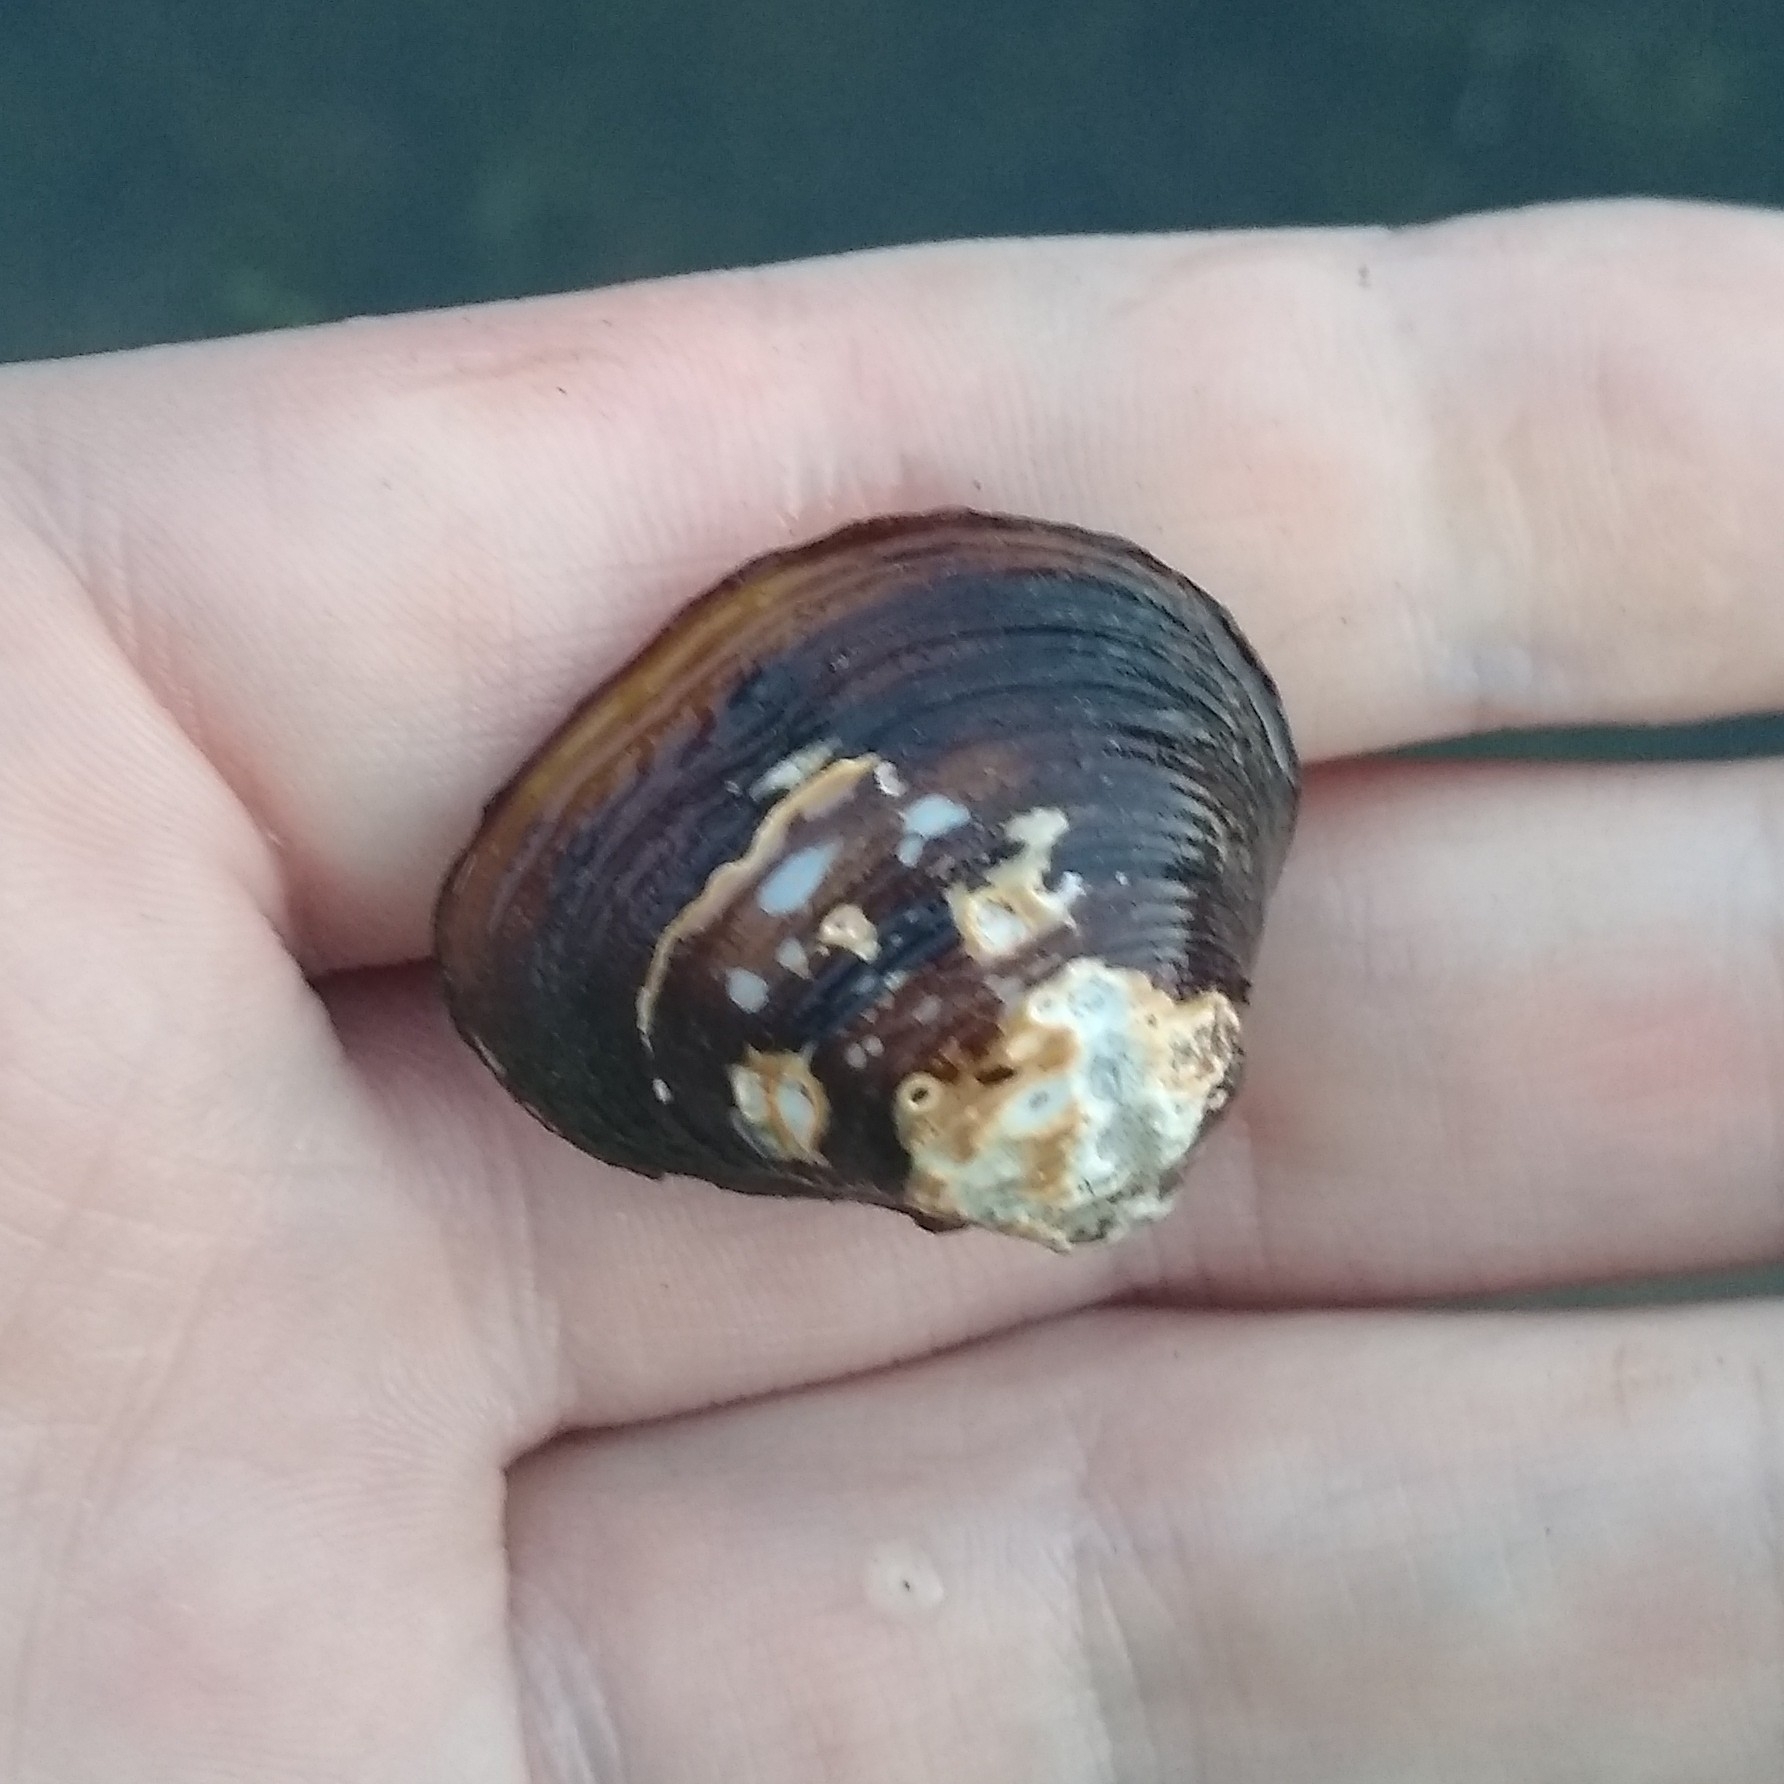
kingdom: Animalia
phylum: Mollusca
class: Bivalvia
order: Venerida
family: Cyrenidae
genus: Corbicula
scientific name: Corbicula fluminea
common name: Asian clam
